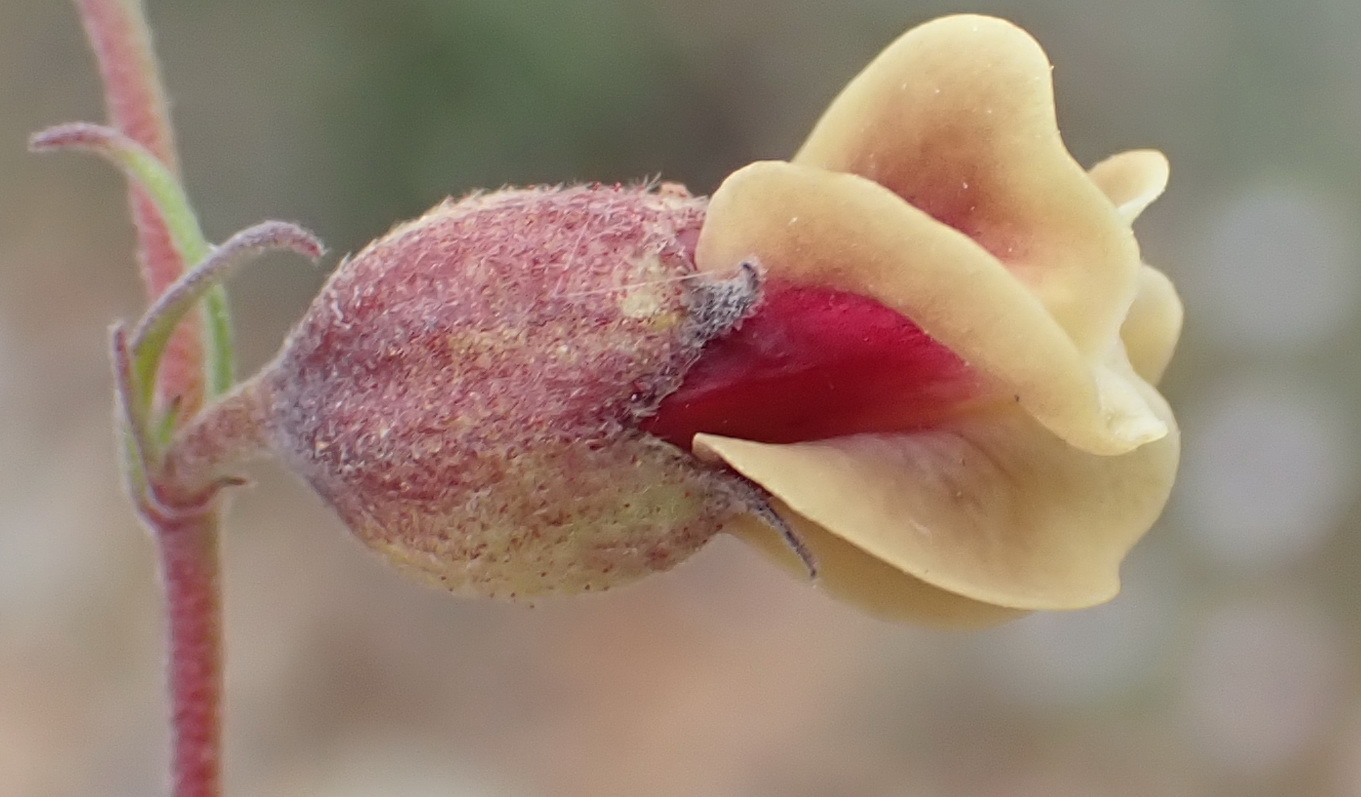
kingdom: Plantae
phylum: Tracheophyta
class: Magnoliopsida
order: Malvales
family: Malvaceae
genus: Hermannia
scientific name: Hermannia gracilis
